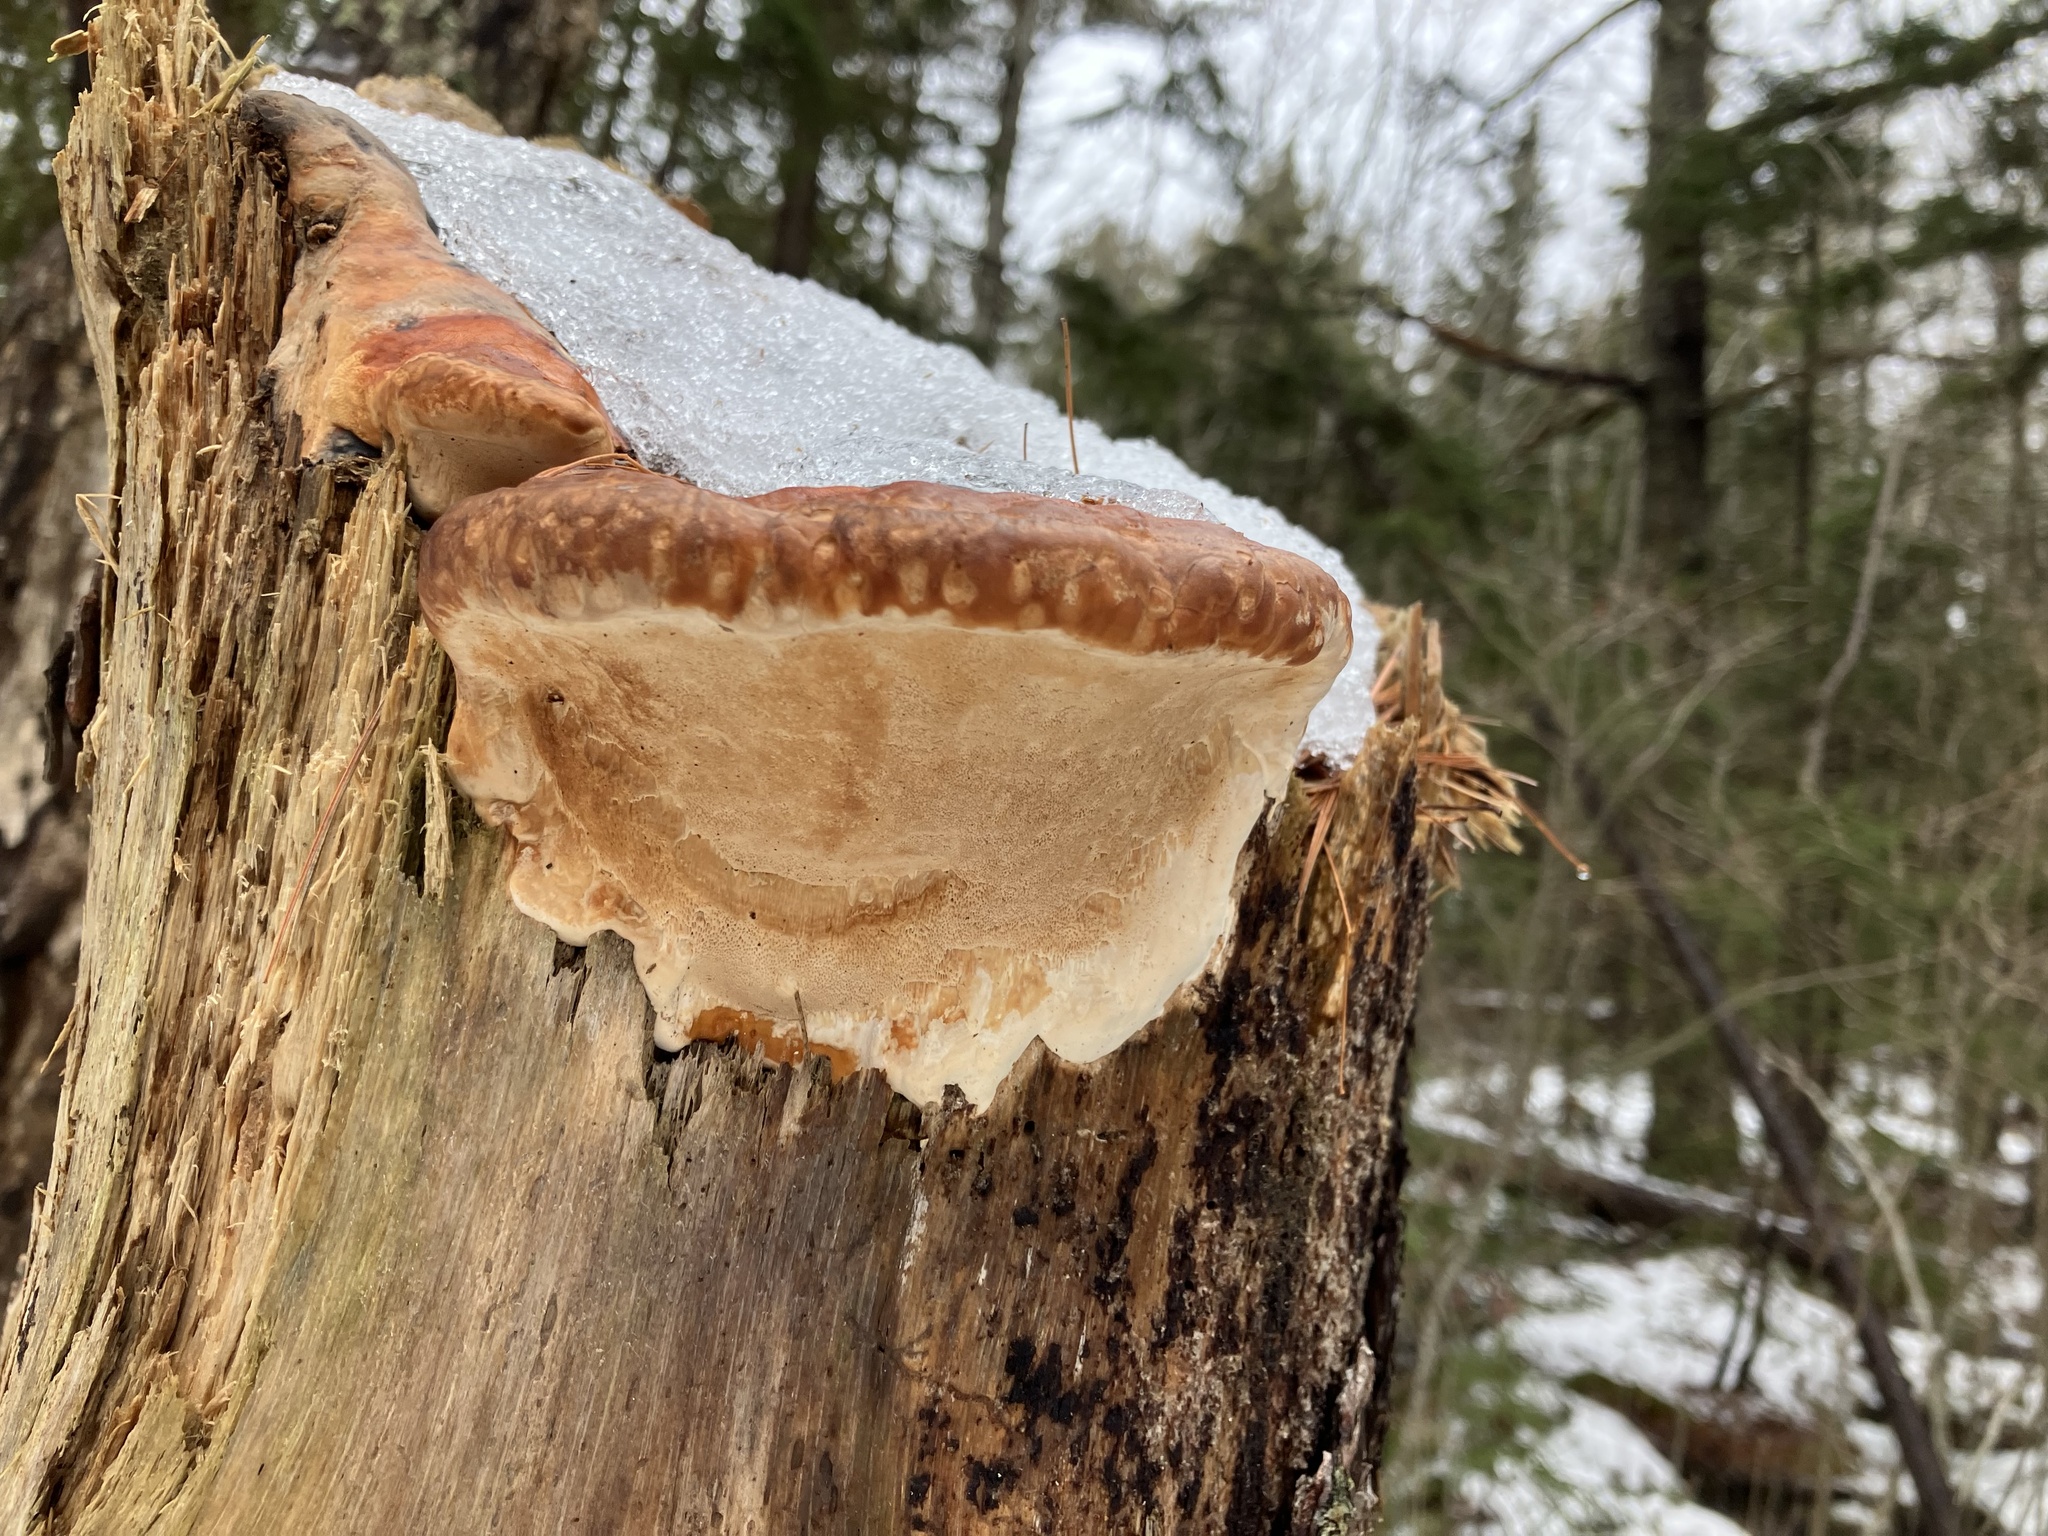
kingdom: Fungi
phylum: Basidiomycota
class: Agaricomycetes
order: Polyporales
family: Fomitopsidaceae
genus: Fomitopsis
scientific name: Fomitopsis mounceae
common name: Northern red belt
